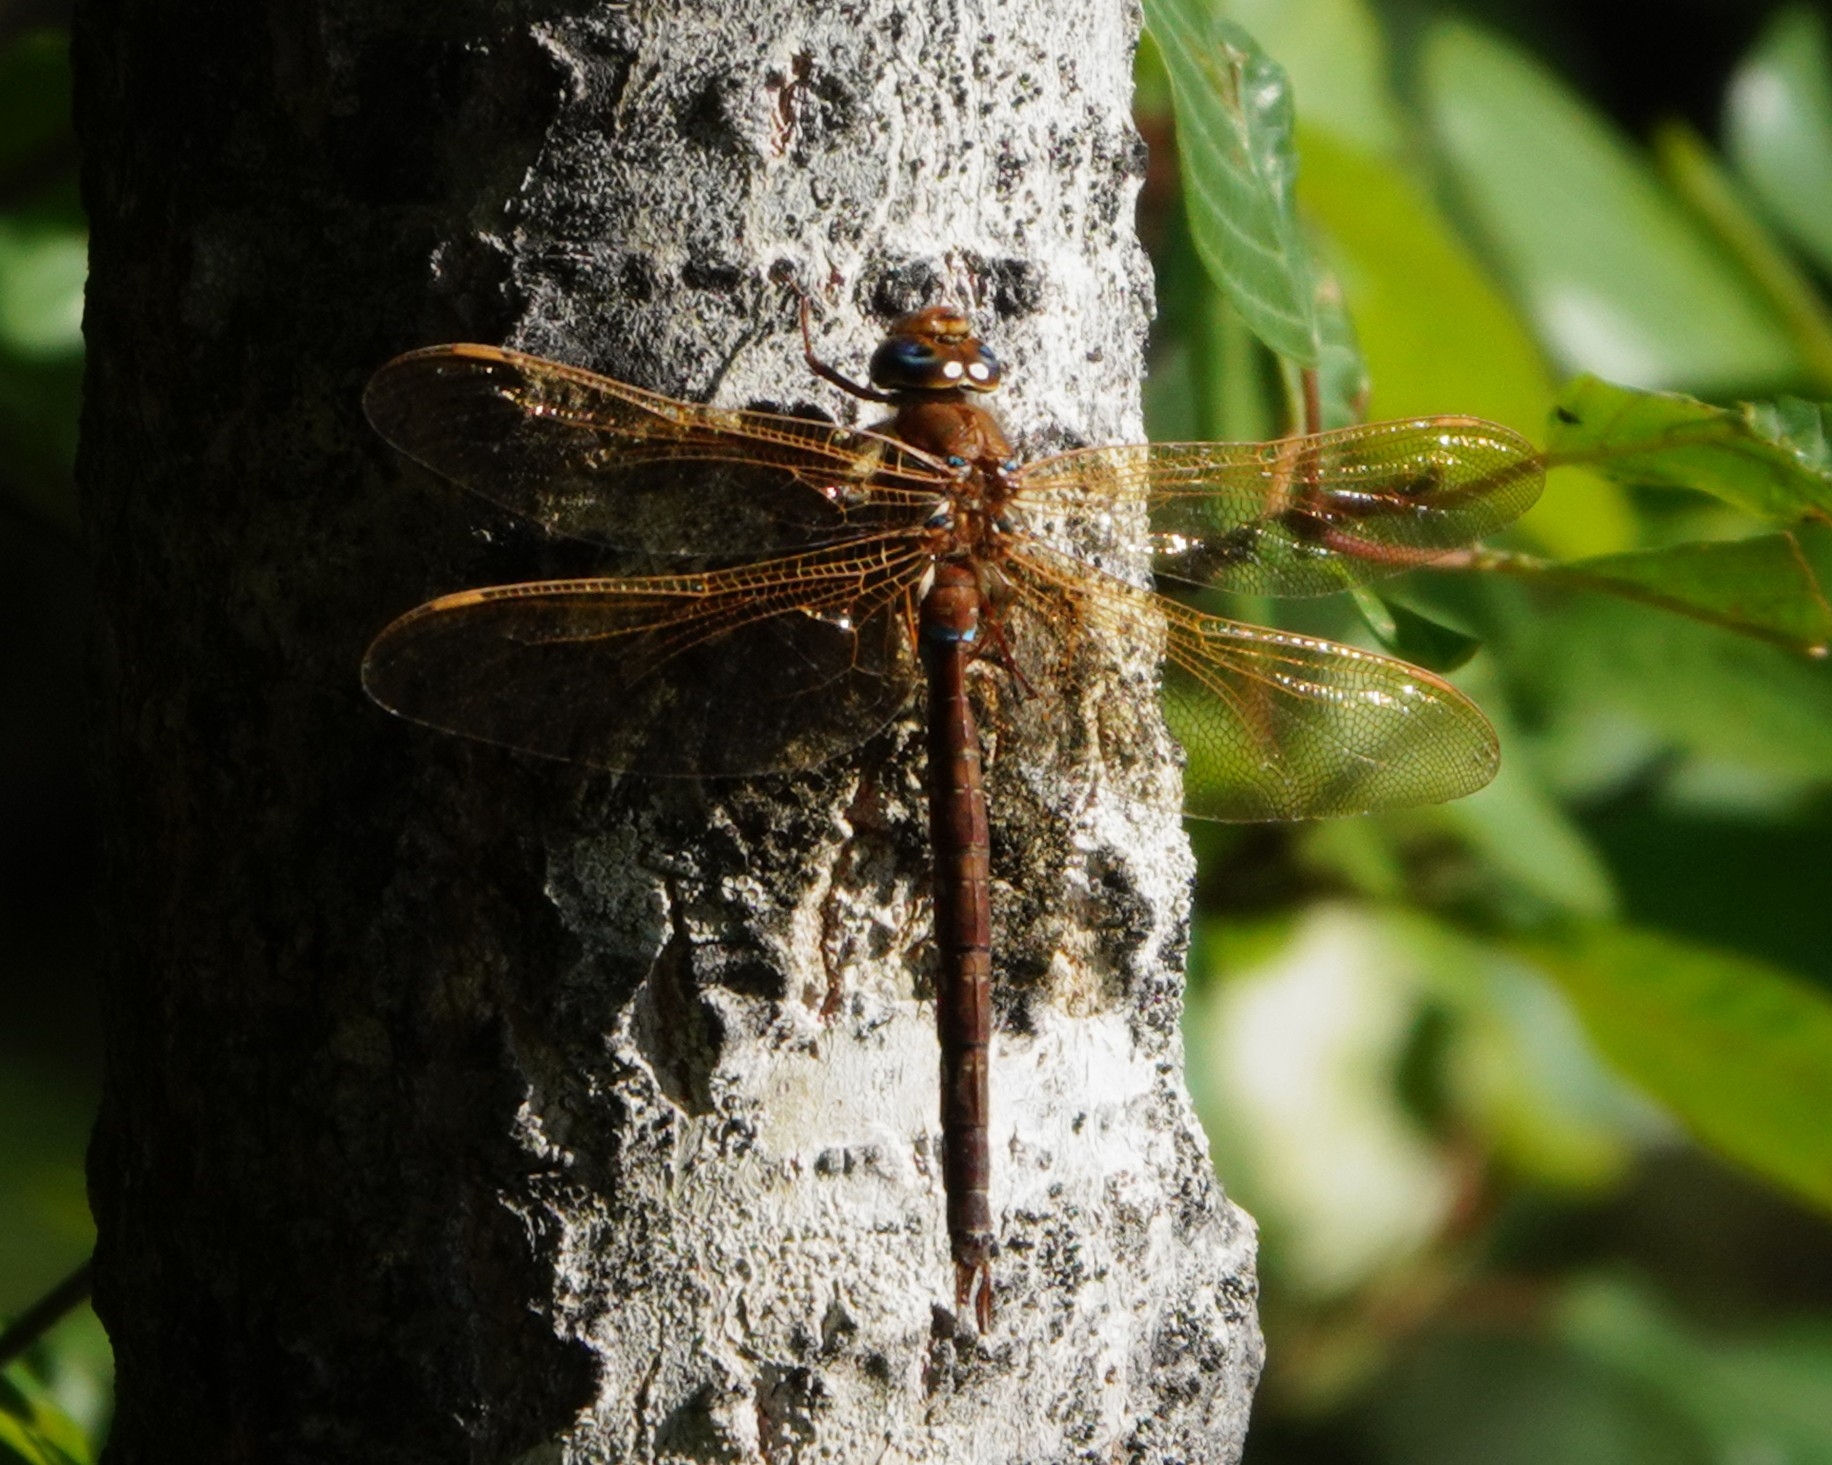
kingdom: Animalia
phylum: Arthropoda
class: Insecta
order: Odonata
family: Aeshnidae
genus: Aeshna
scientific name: Aeshna grandis
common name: Brown hawker
